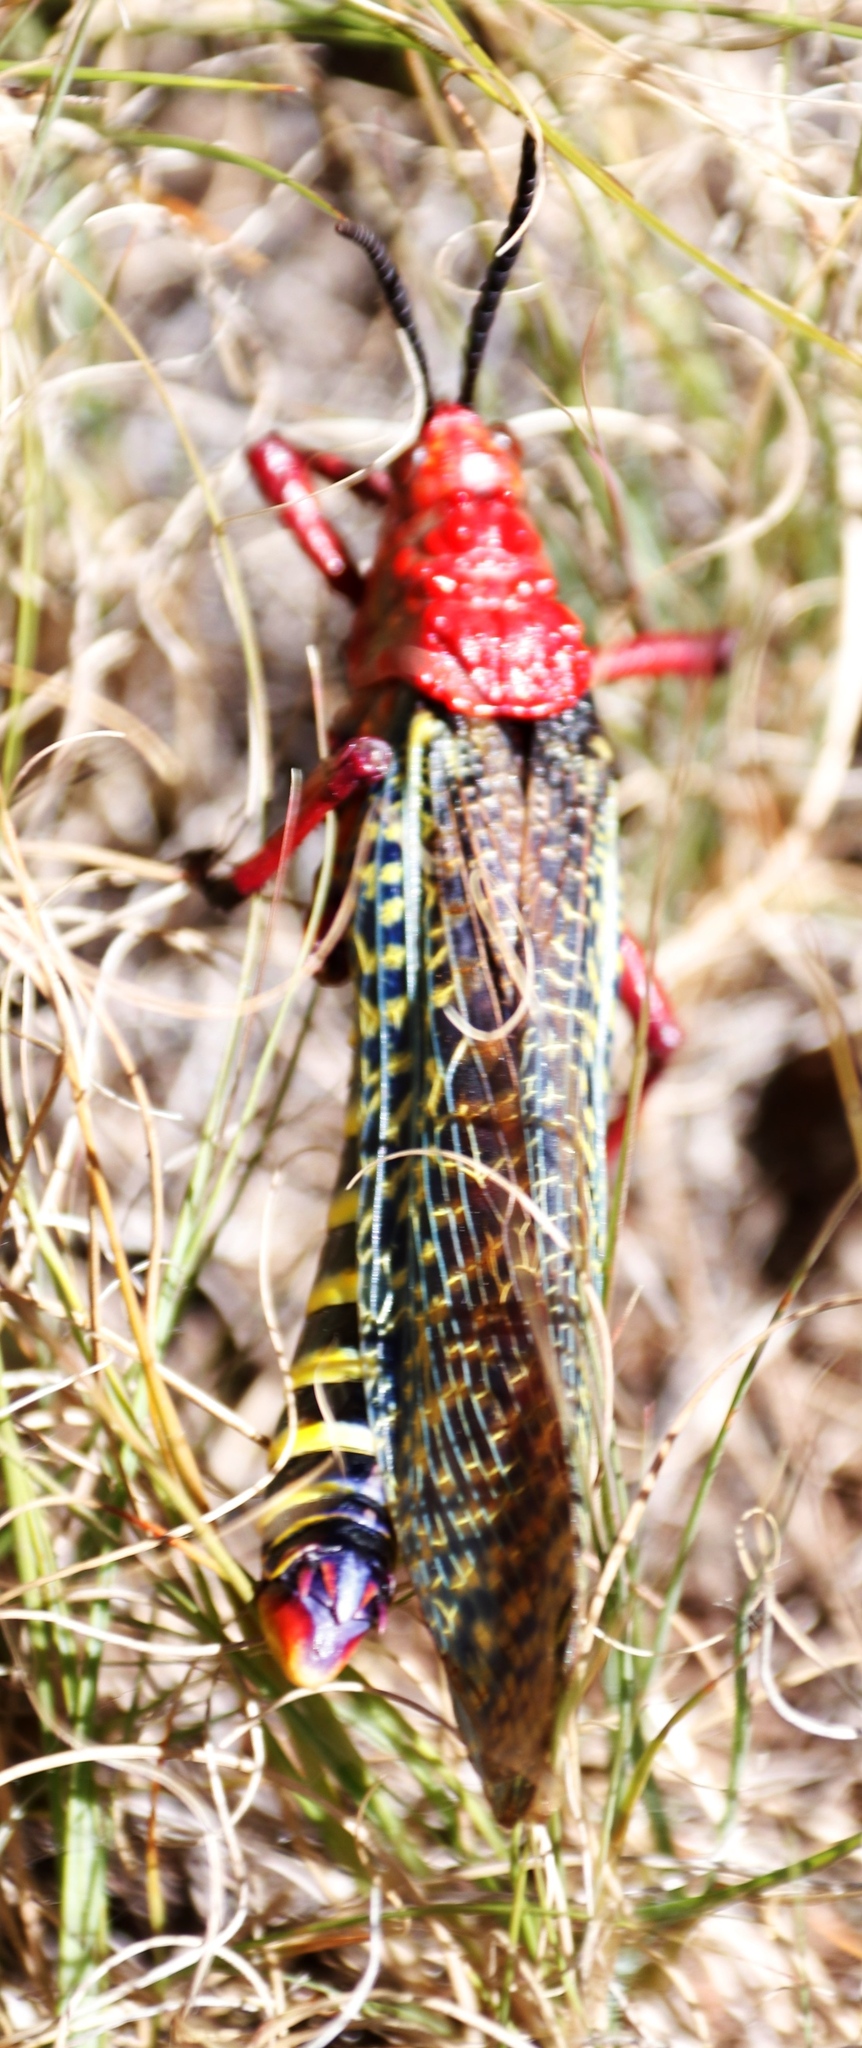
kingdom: Animalia
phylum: Arthropoda
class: Insecta
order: Orthoptera
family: Pyrgomorphidae
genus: Phymateus
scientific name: Phymateus morbillosus
